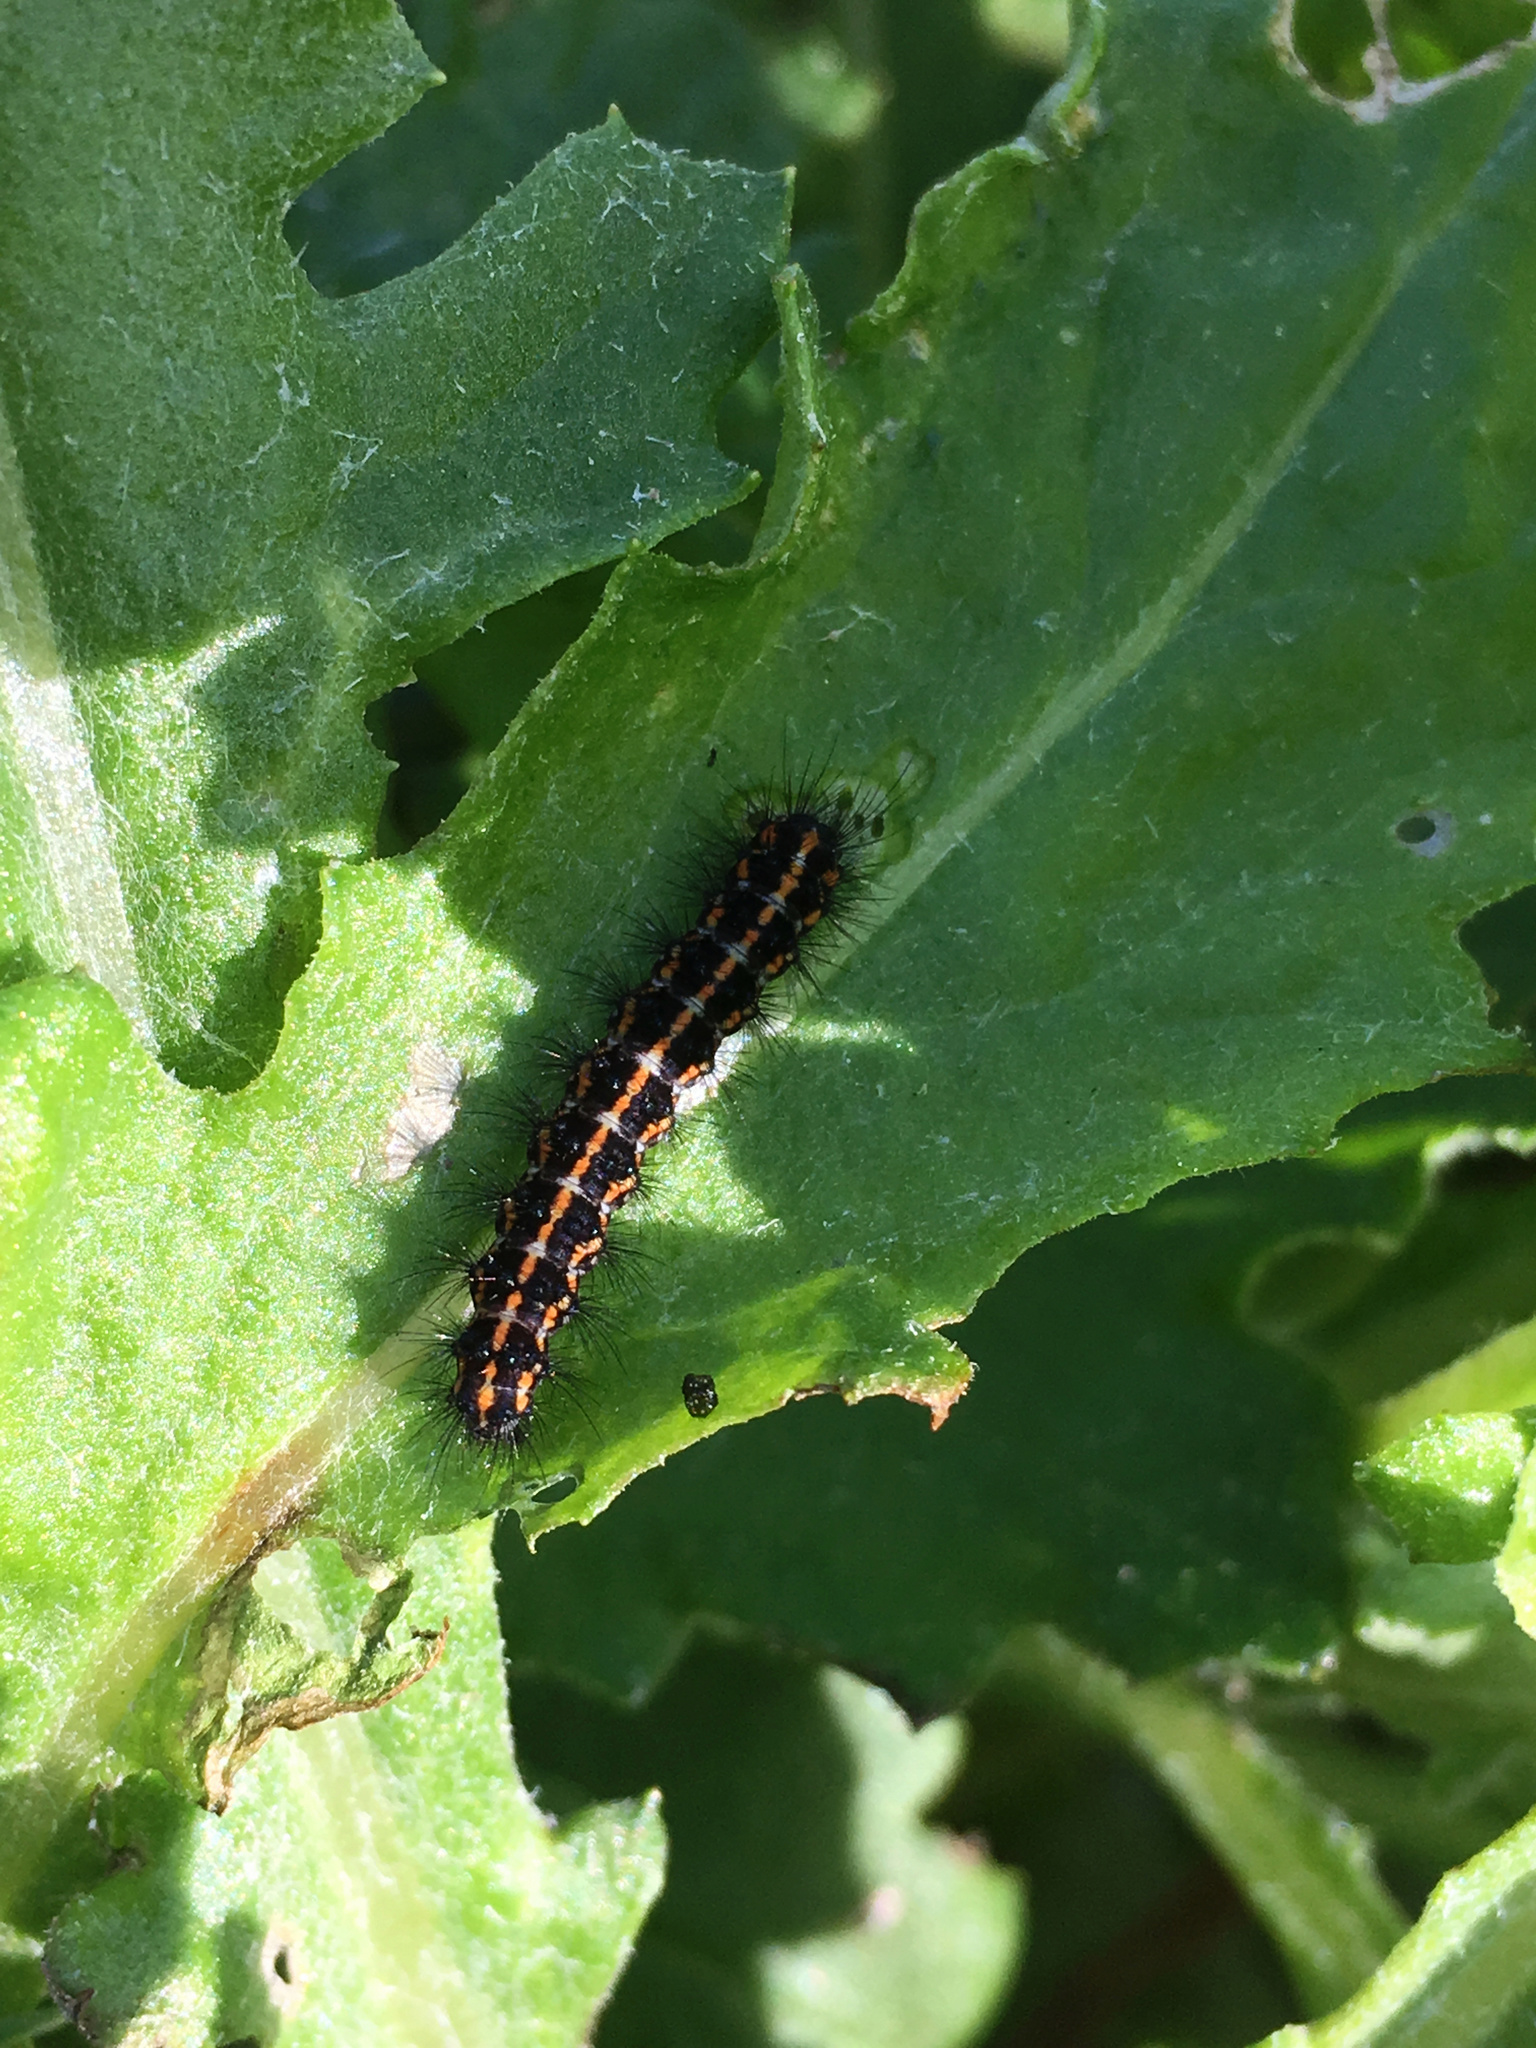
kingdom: Animalia
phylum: Arthropoda
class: Insecta
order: Lepidoptera
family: Erebidae
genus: Nyctemera
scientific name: Nyctemera annulatum
